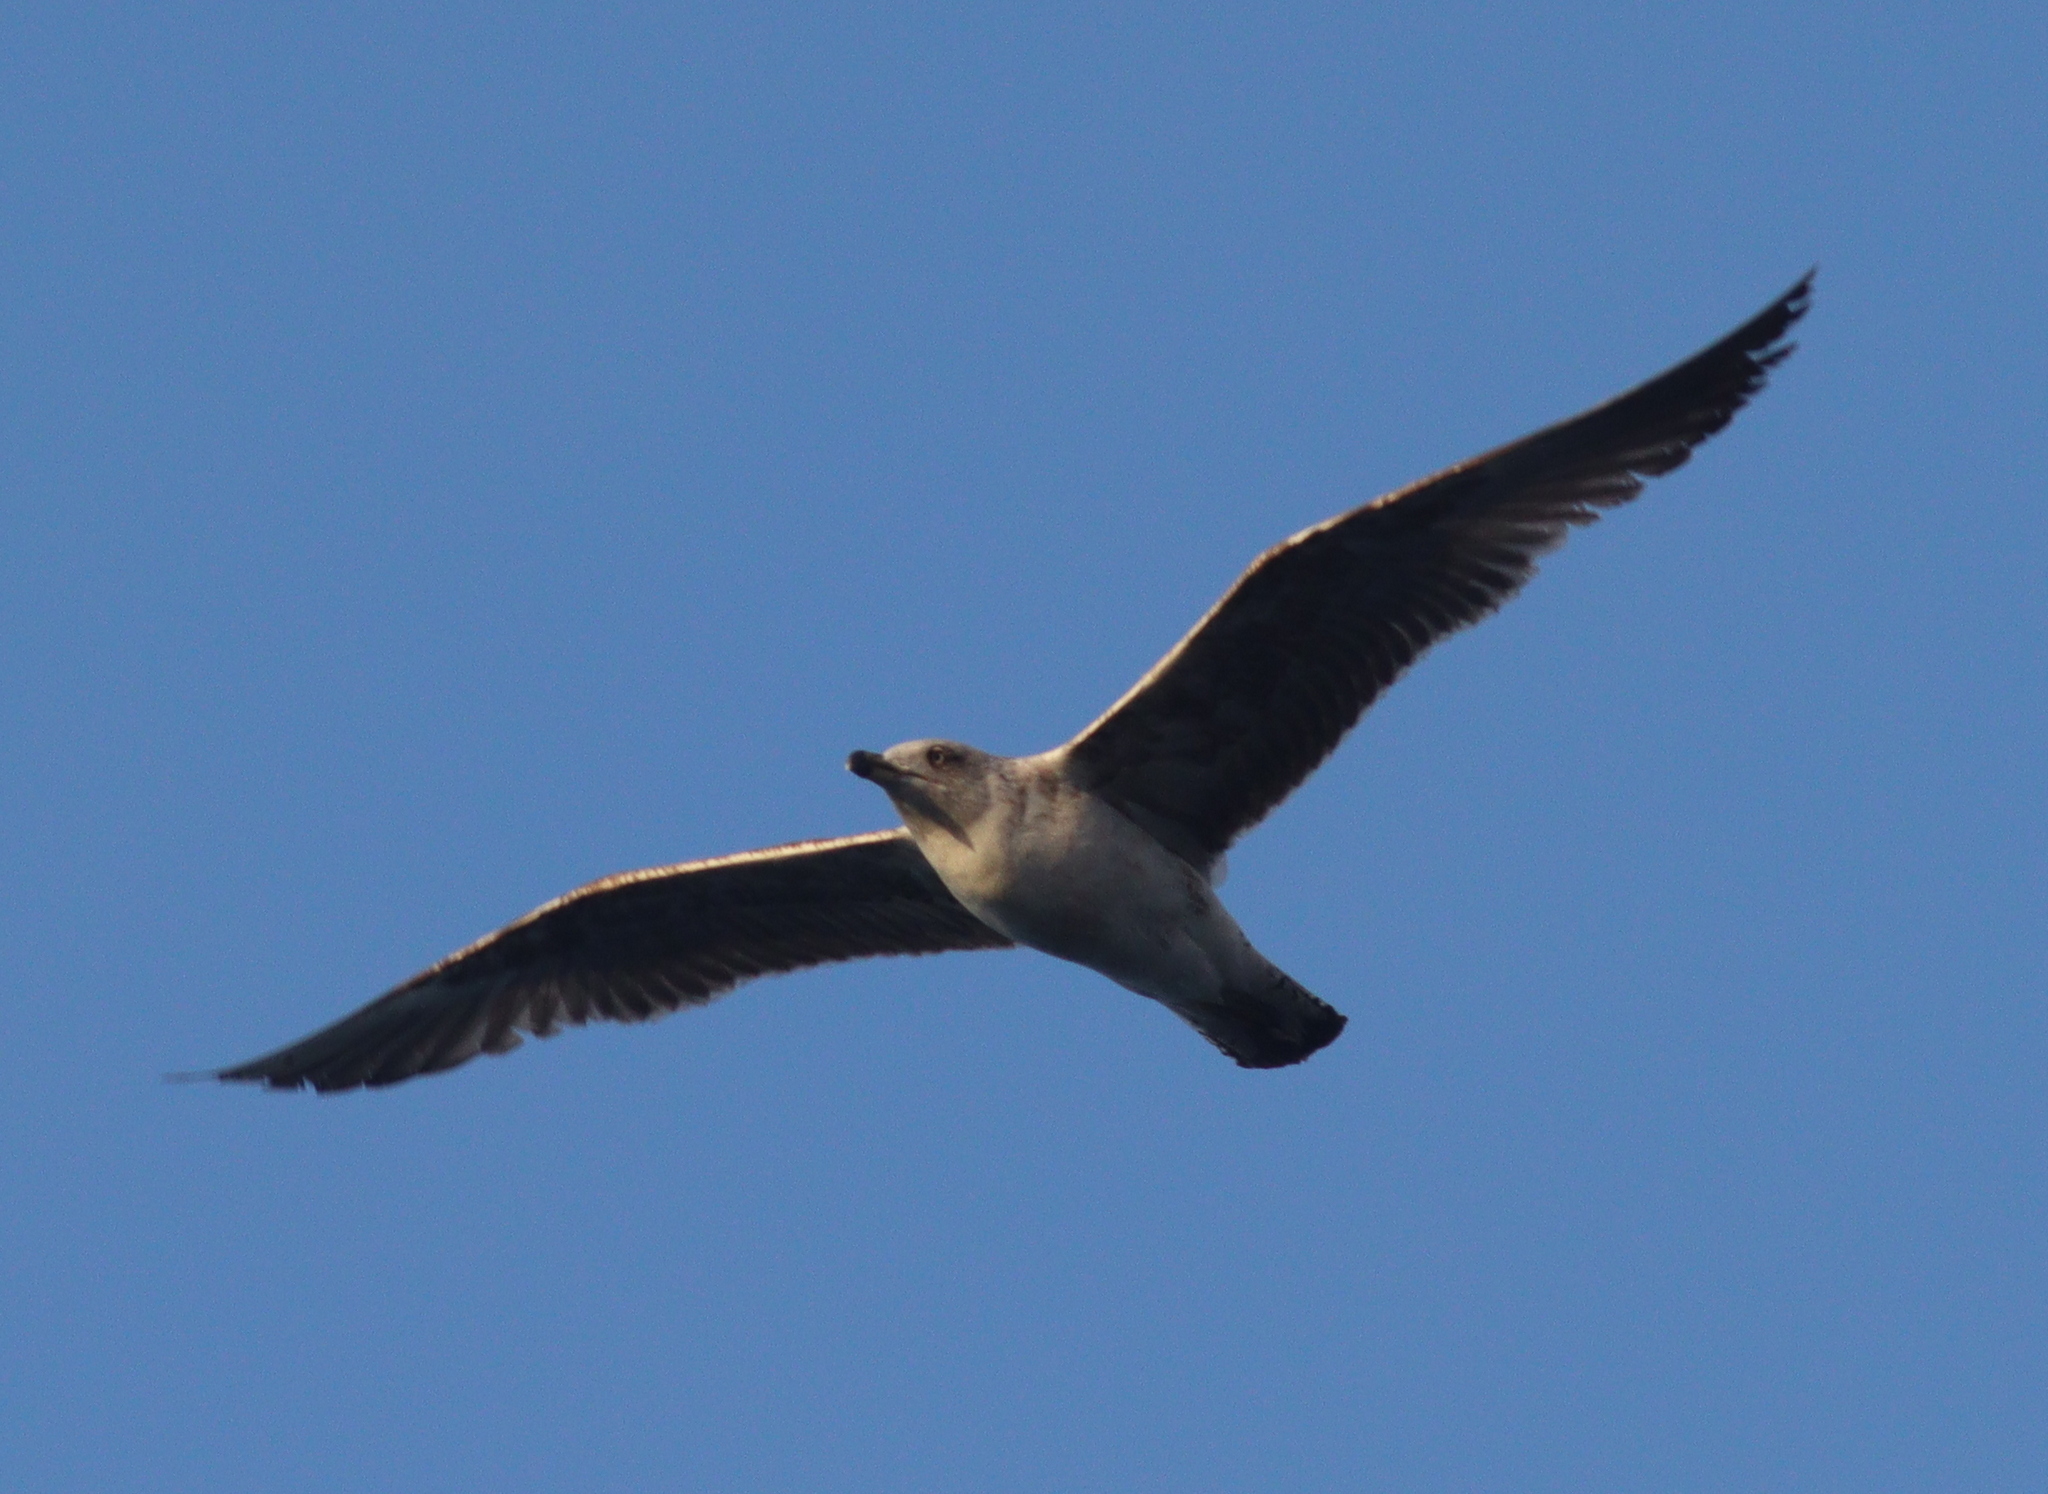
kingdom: Animalia
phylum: Chordata
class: Aves
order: Charadriiformes
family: Laridae
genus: Larus
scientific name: Larus michahellis
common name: Yellow-legged gull
